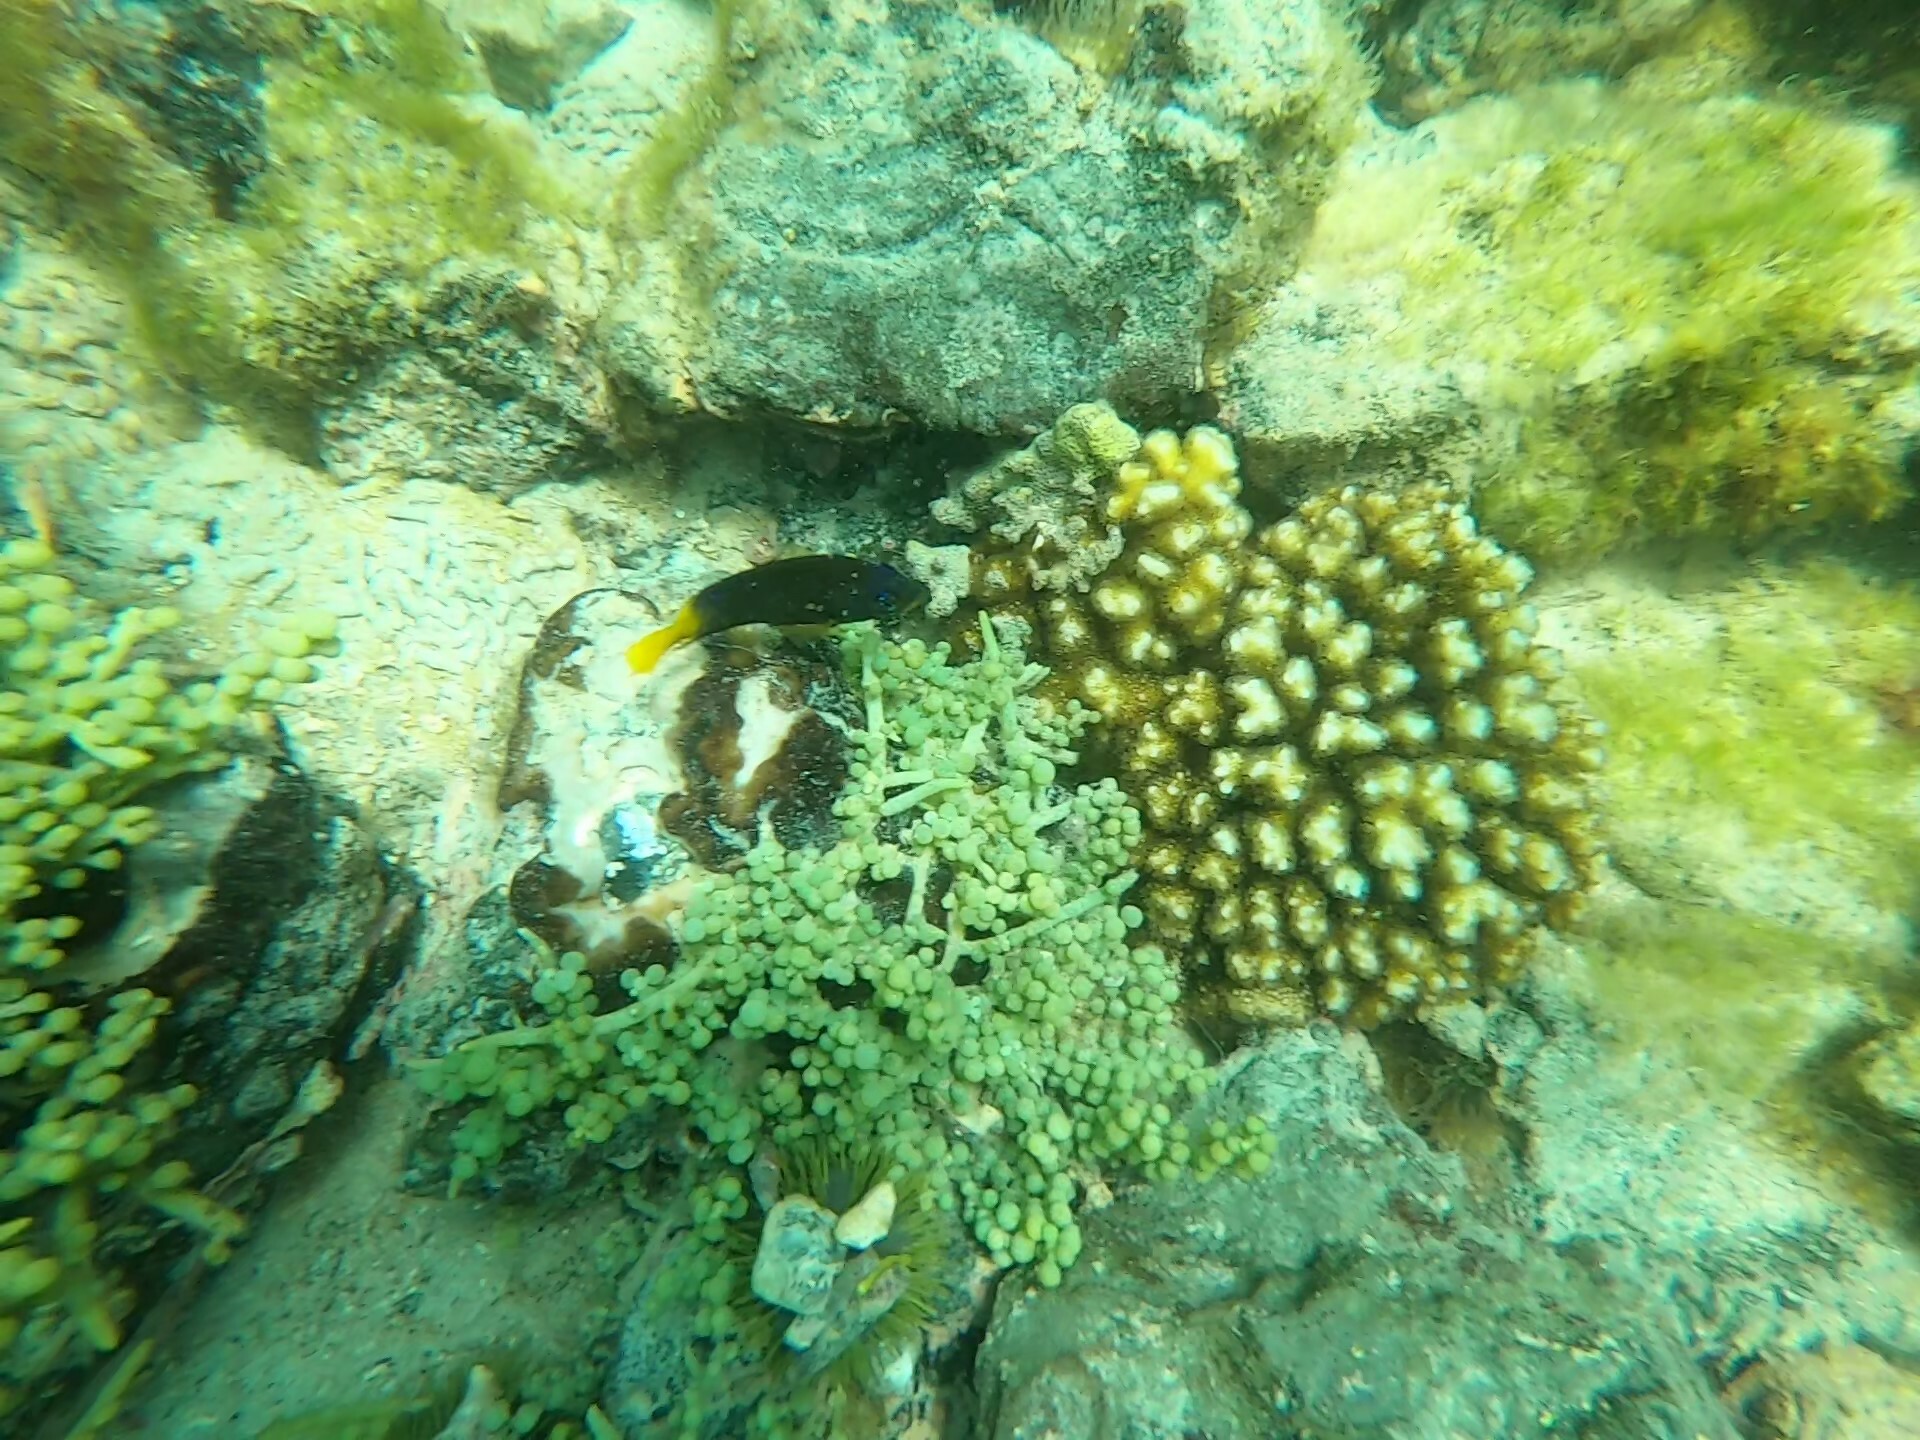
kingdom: Plantae
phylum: Chlorophyta
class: Ulvophyceae
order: Bryopsidales
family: Caulerpaceae
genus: Caulerpa
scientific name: Caulerpa racemosa
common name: Green grape algae
